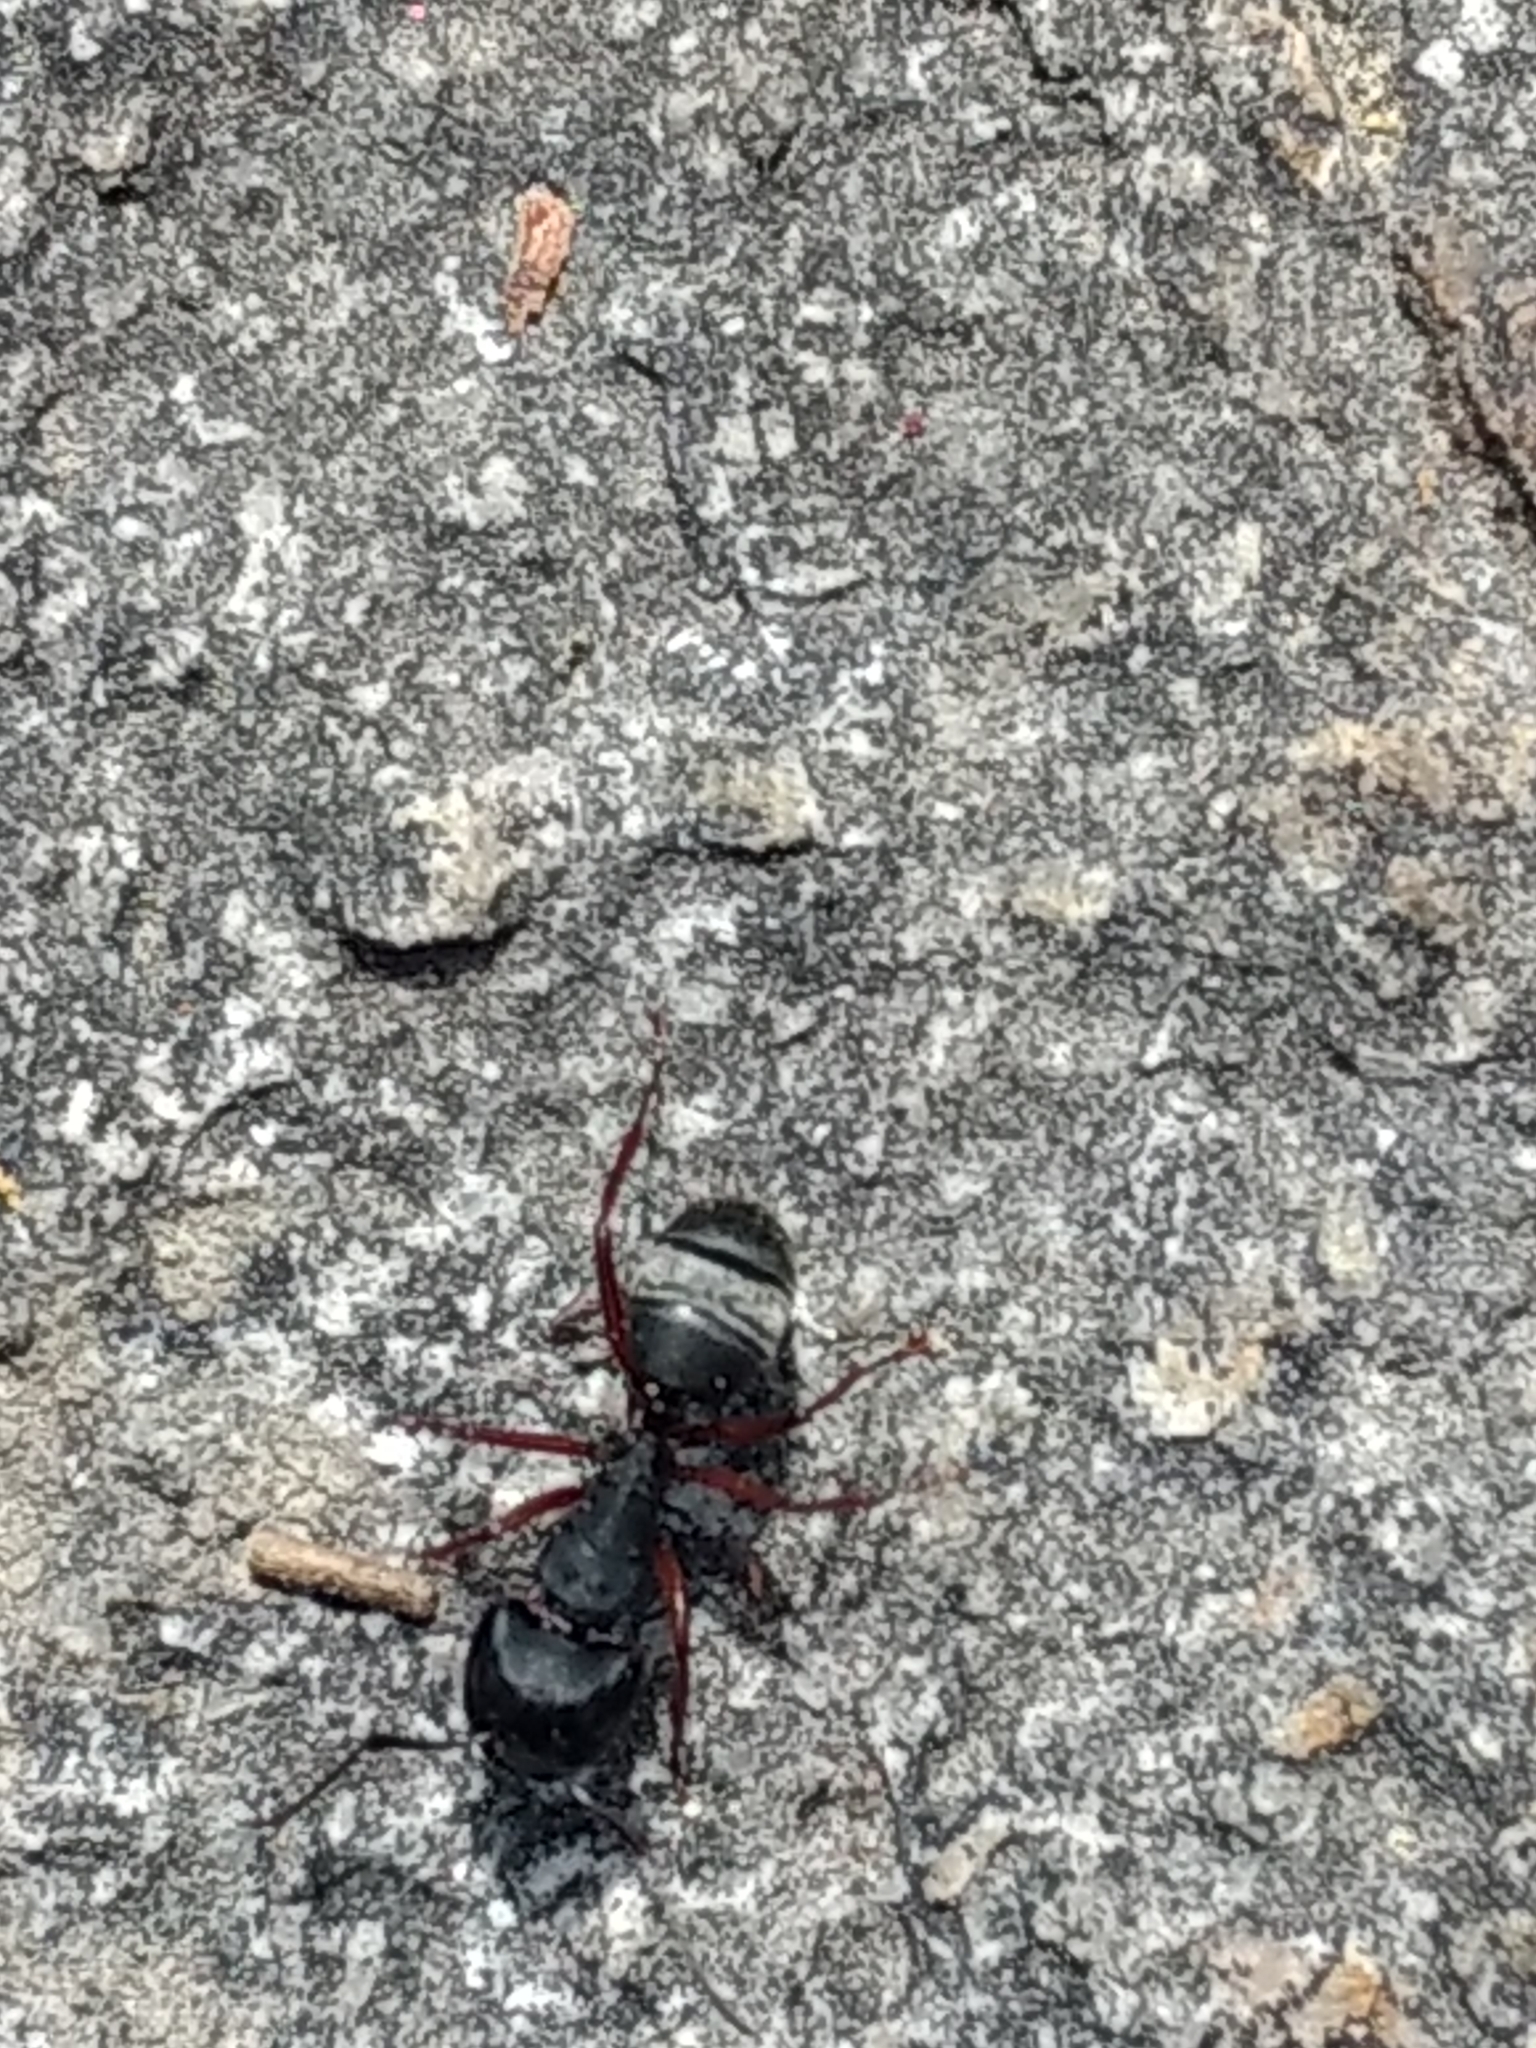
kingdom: Animalia
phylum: Arthropoda
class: Insecta
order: Hymenoptera
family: Formicidae
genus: Camponotus
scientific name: Camponotus modoc
